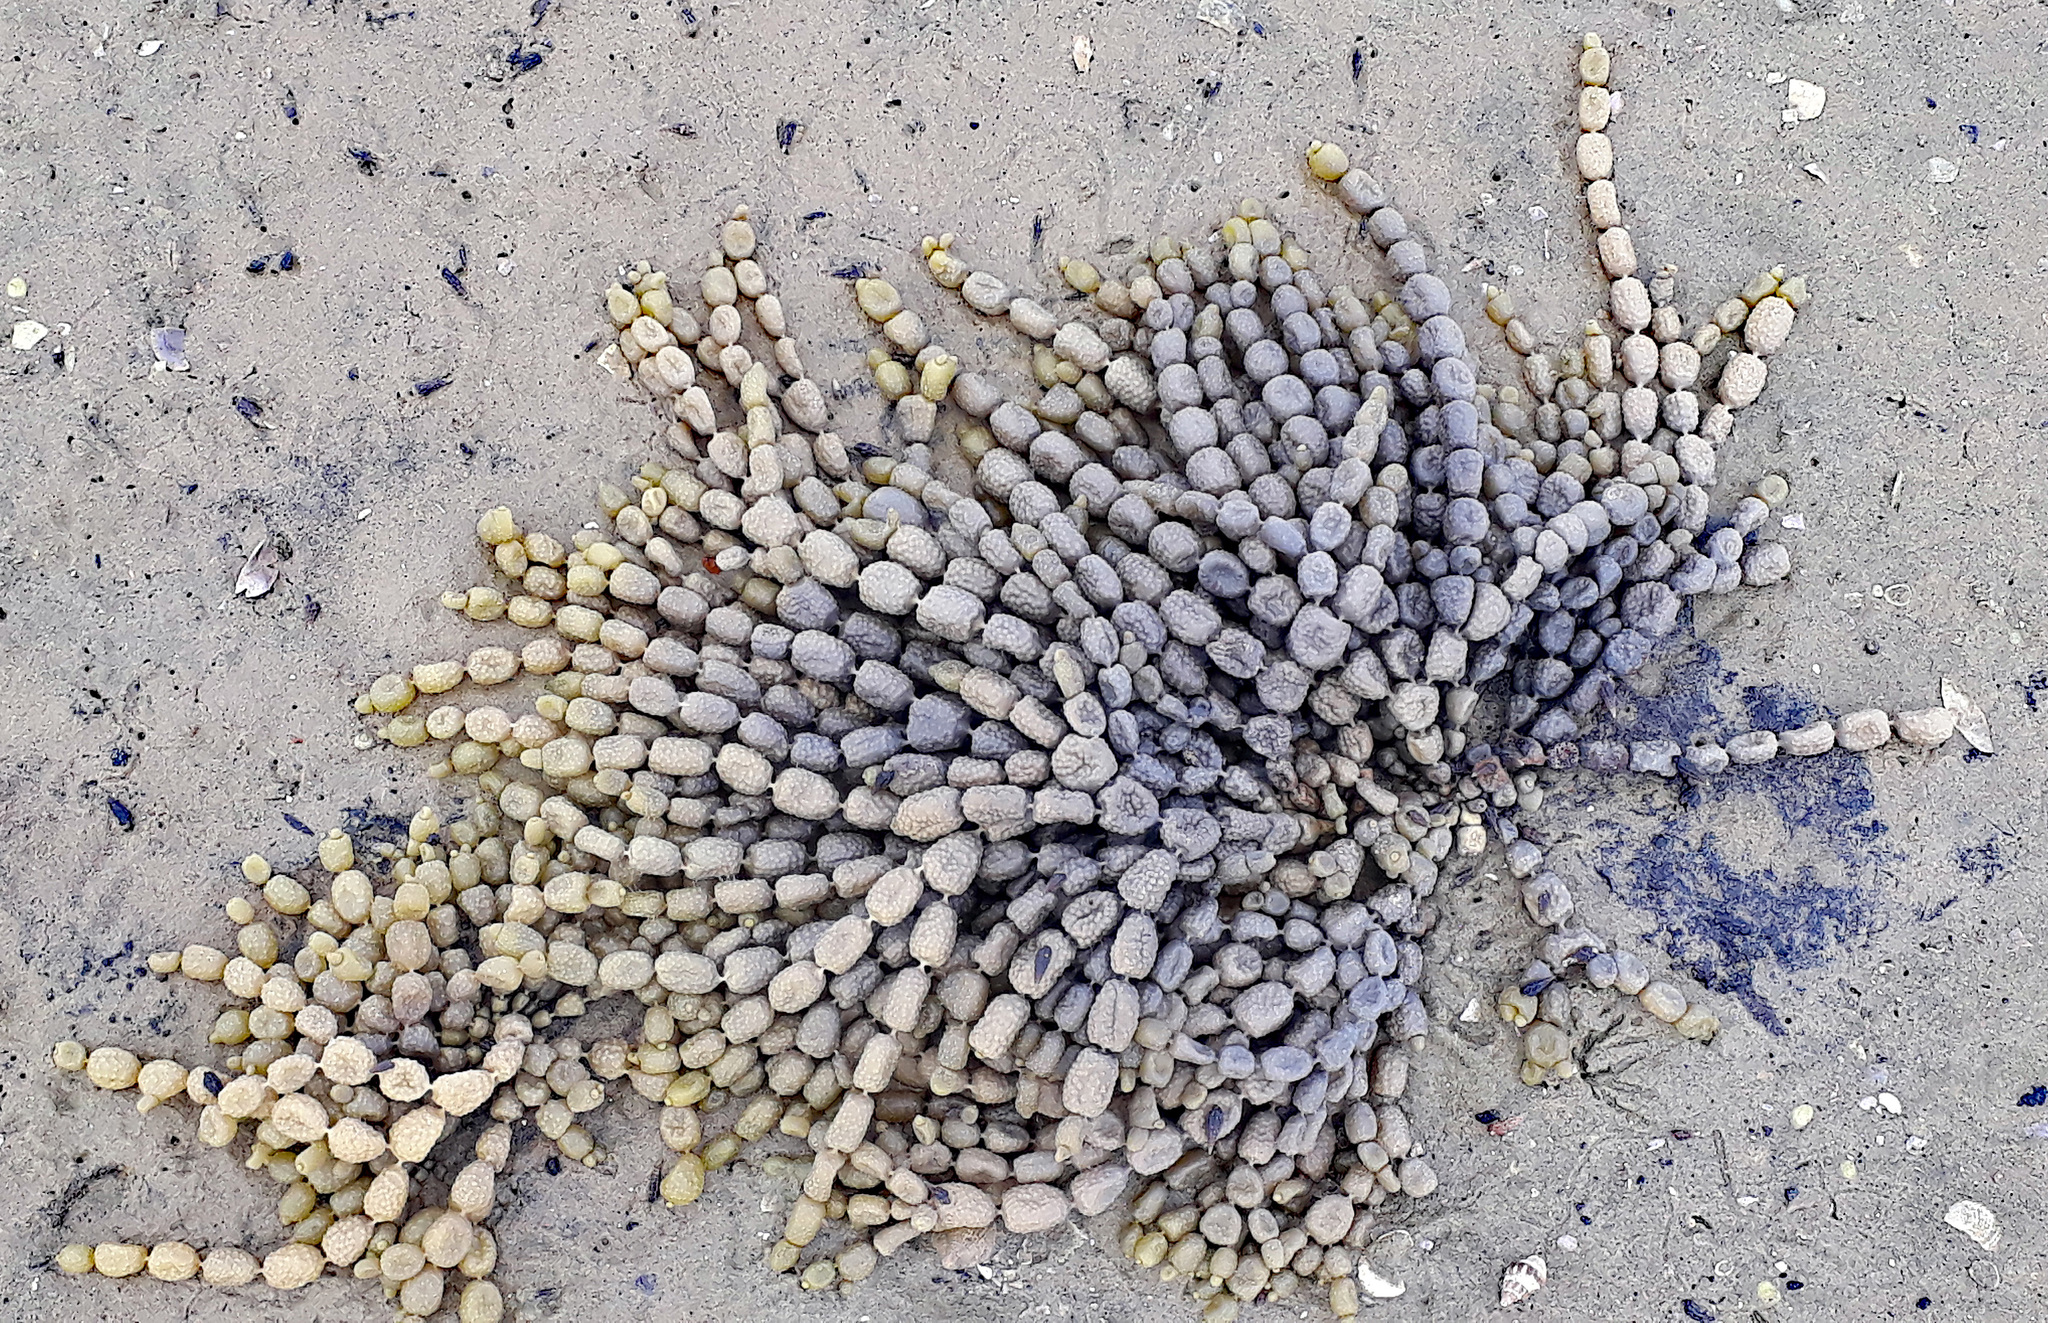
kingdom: Chromista
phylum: Ochrophyta
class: Phaeophyceae
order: Fucales
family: Hormosiraceae
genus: Hormosira
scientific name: Hormosira banksii
